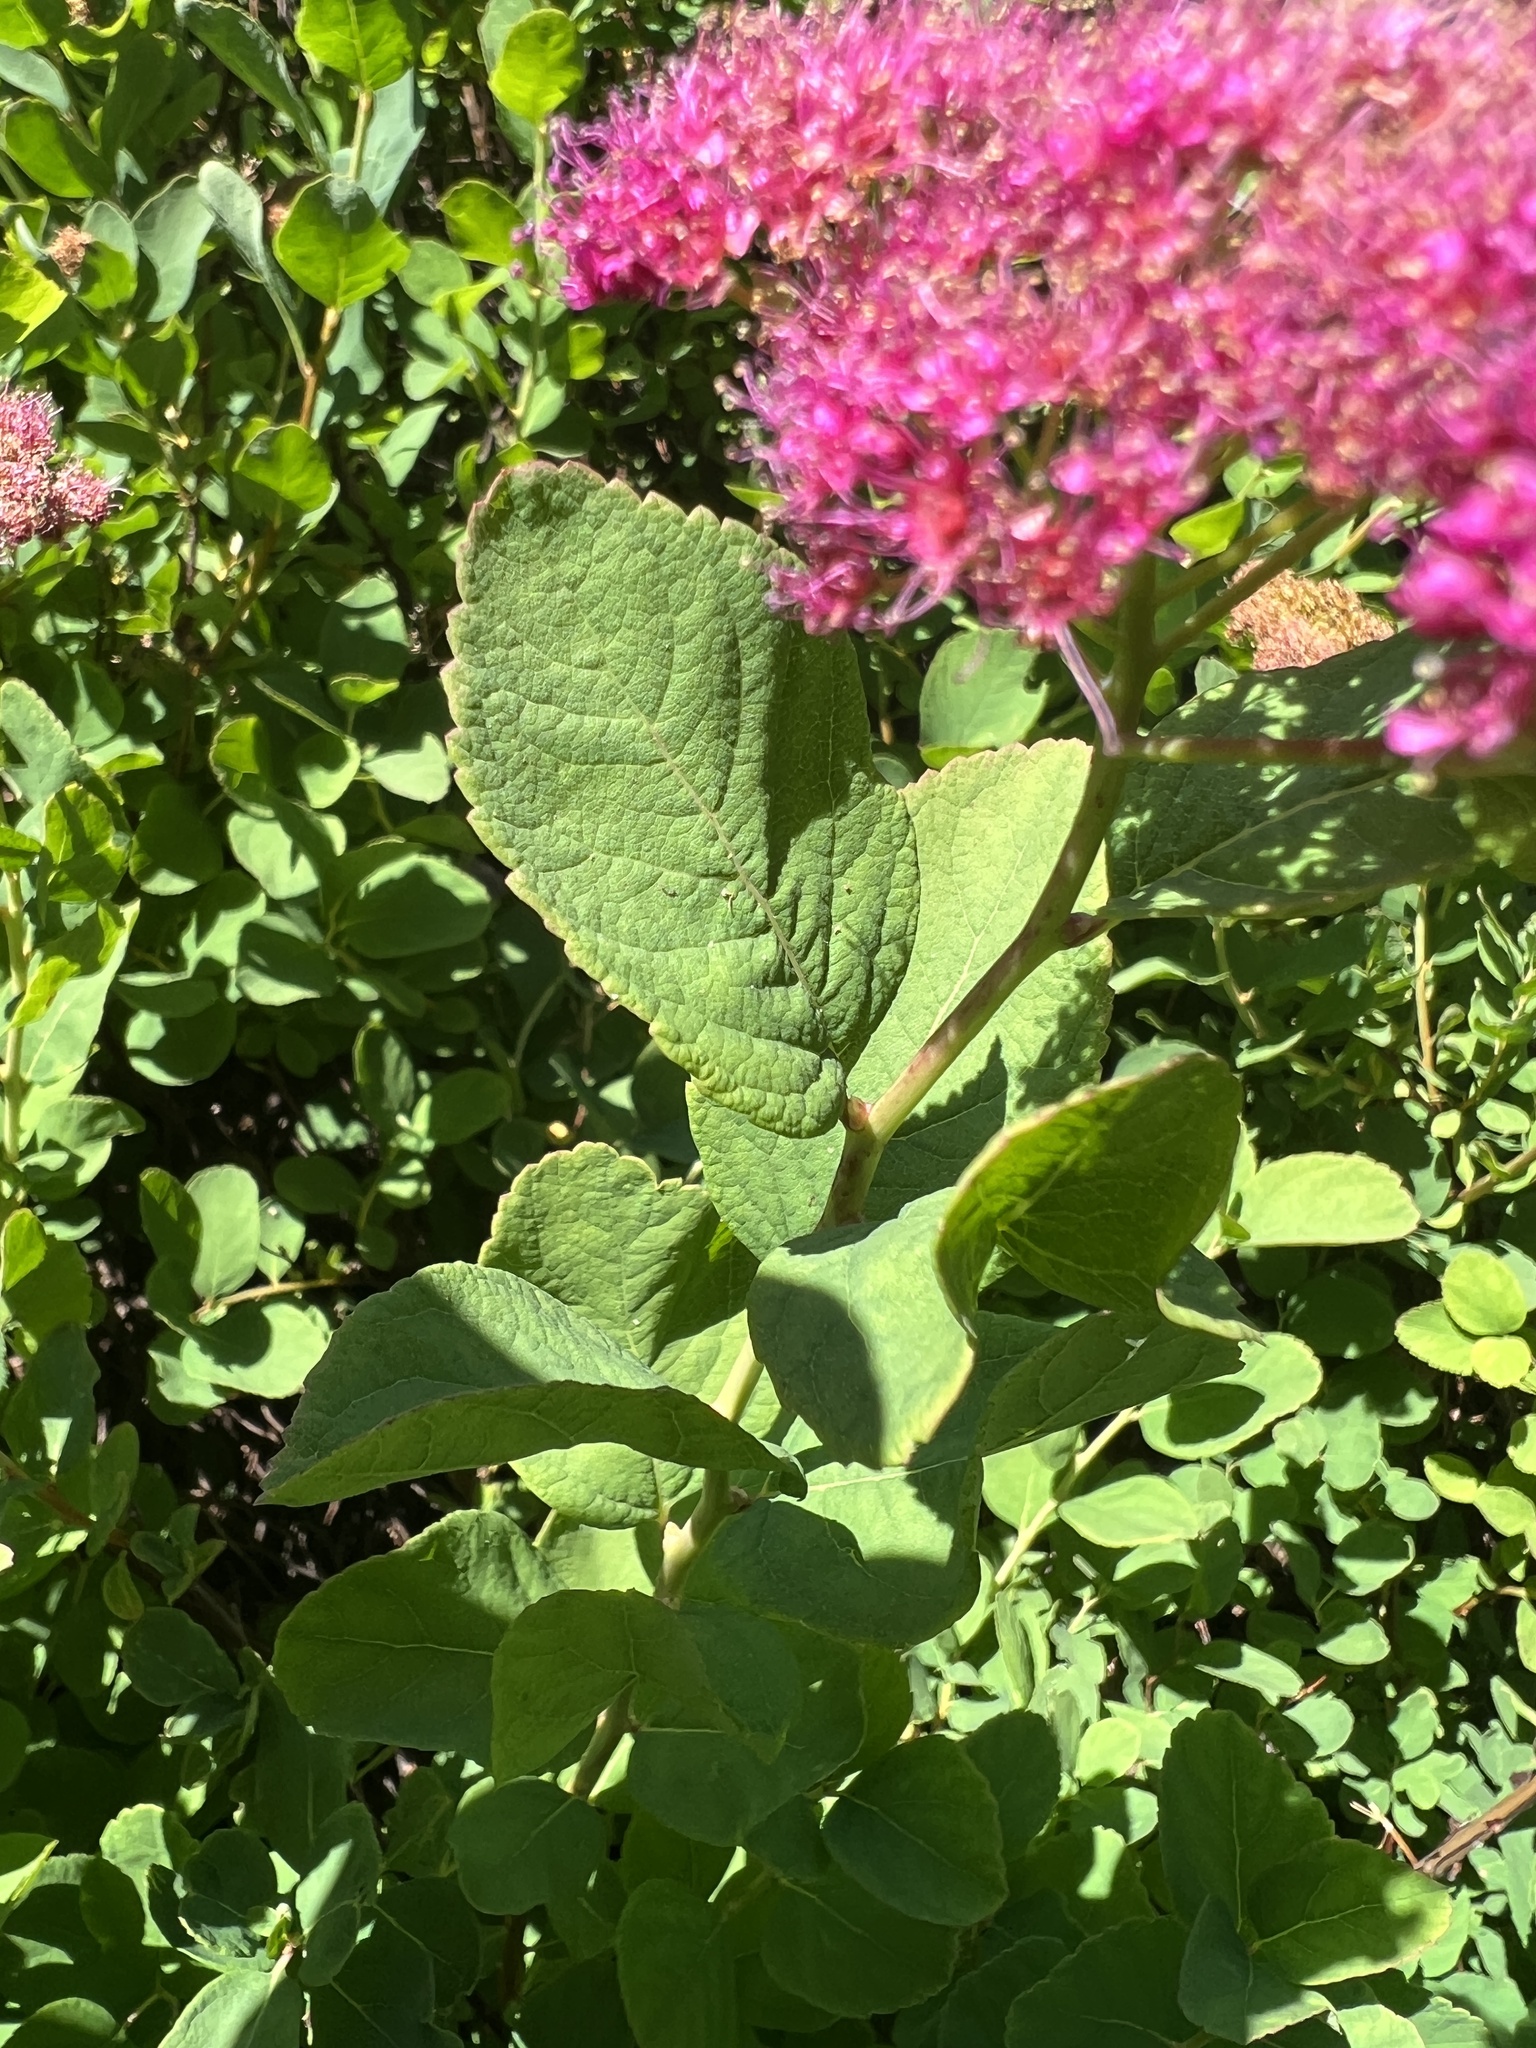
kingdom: Plantae
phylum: Tracheophyta
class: Magnoliopsida
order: Rosales
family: Rosaceae
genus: Spiraea
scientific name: Spiraea splendens
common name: Subalpine meadowsweet
